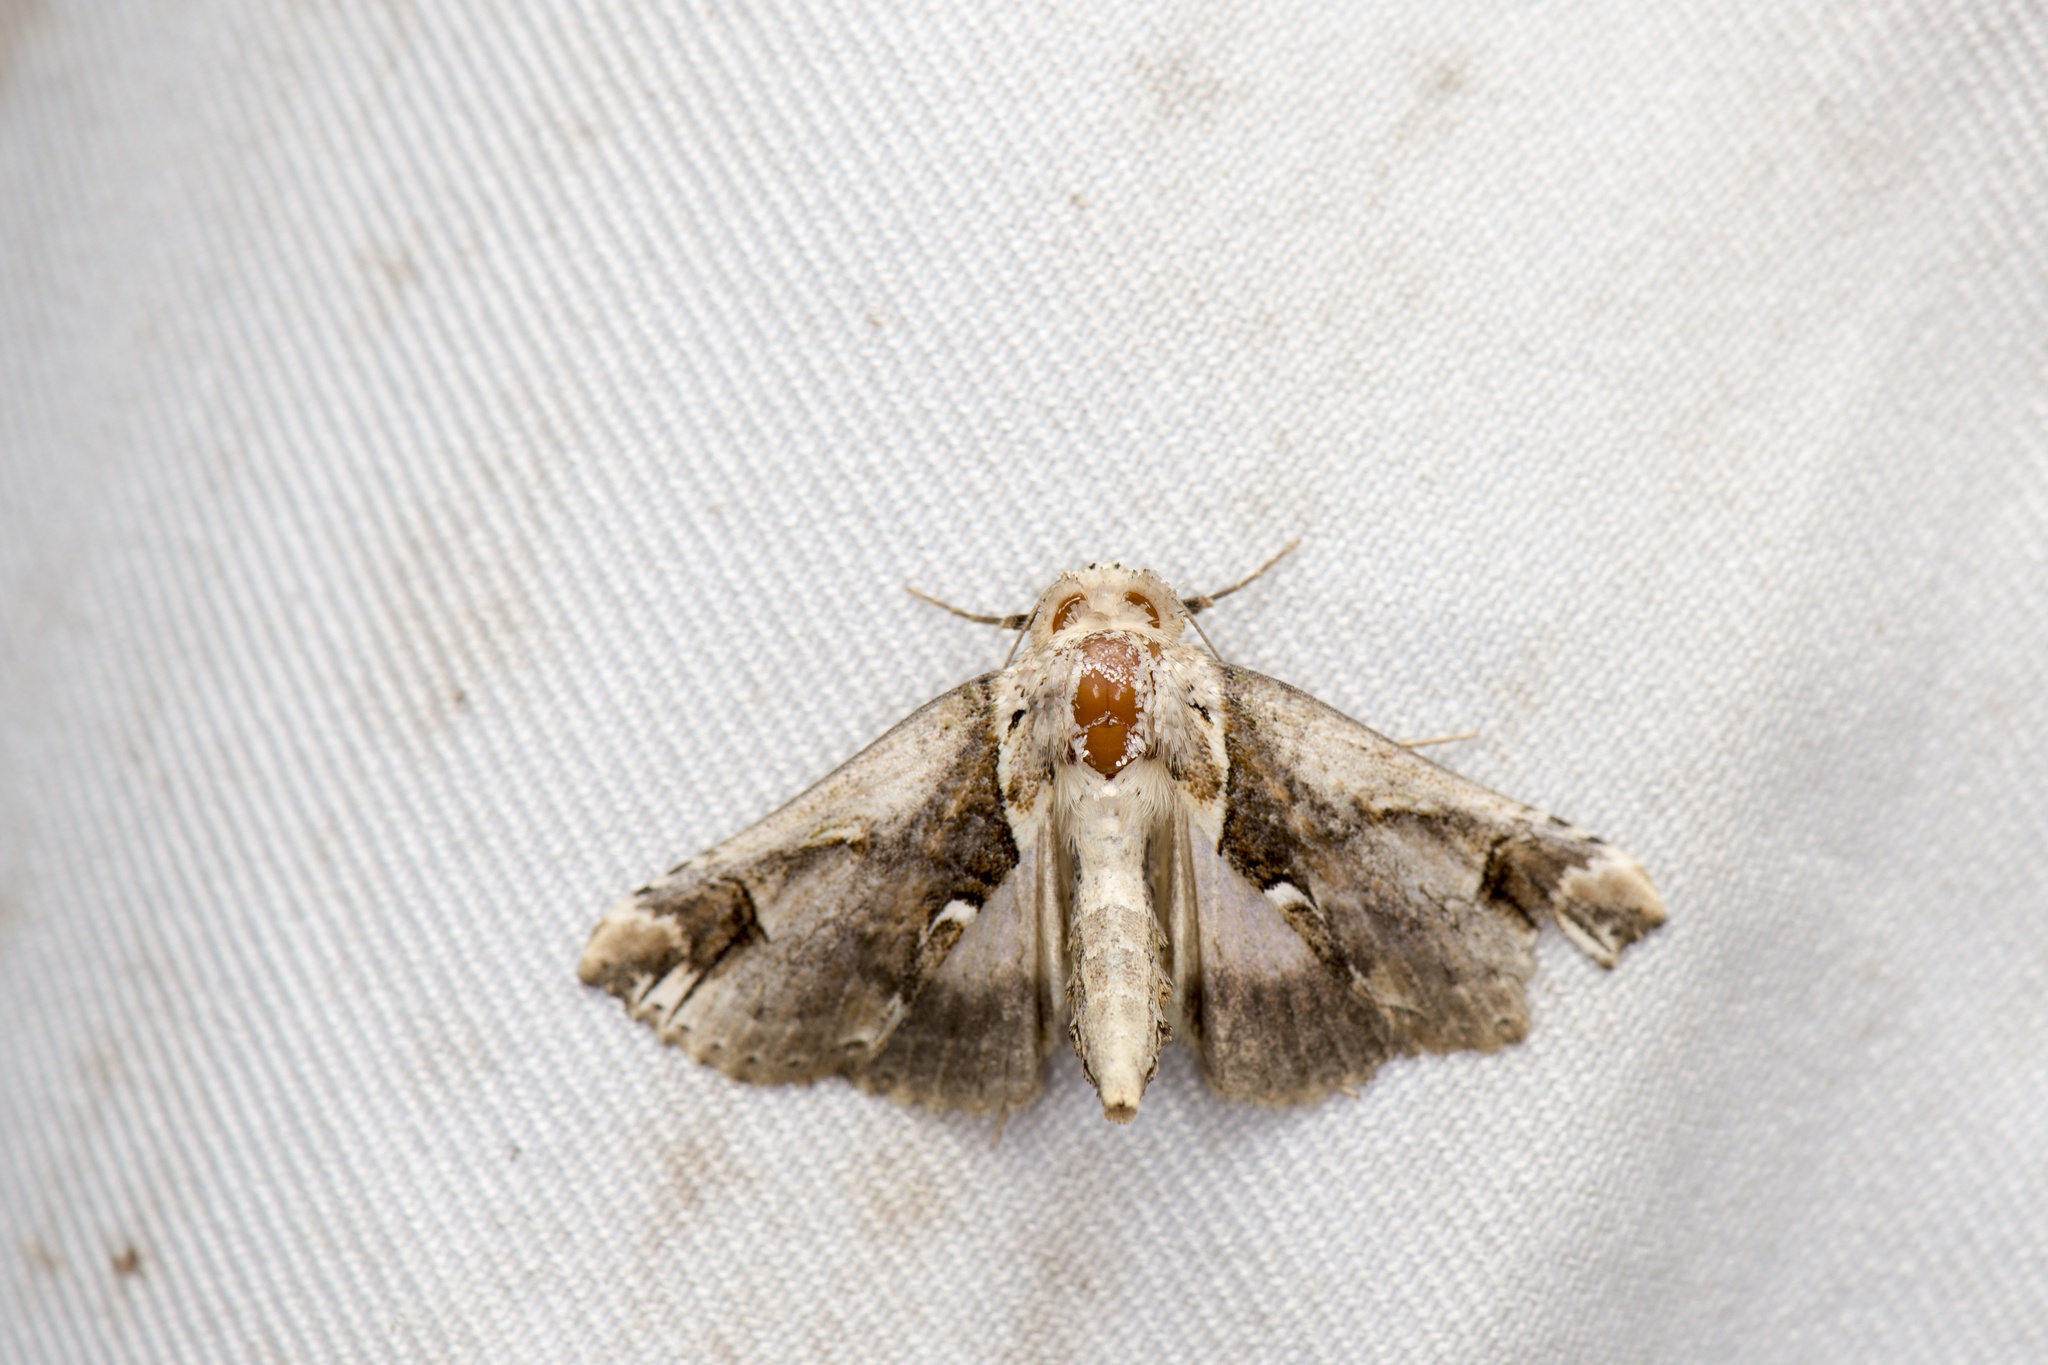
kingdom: Animalia
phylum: Arthropoda
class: Insecta
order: Lepidoptera
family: Nolidae
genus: Risoba
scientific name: Risoba basalis
